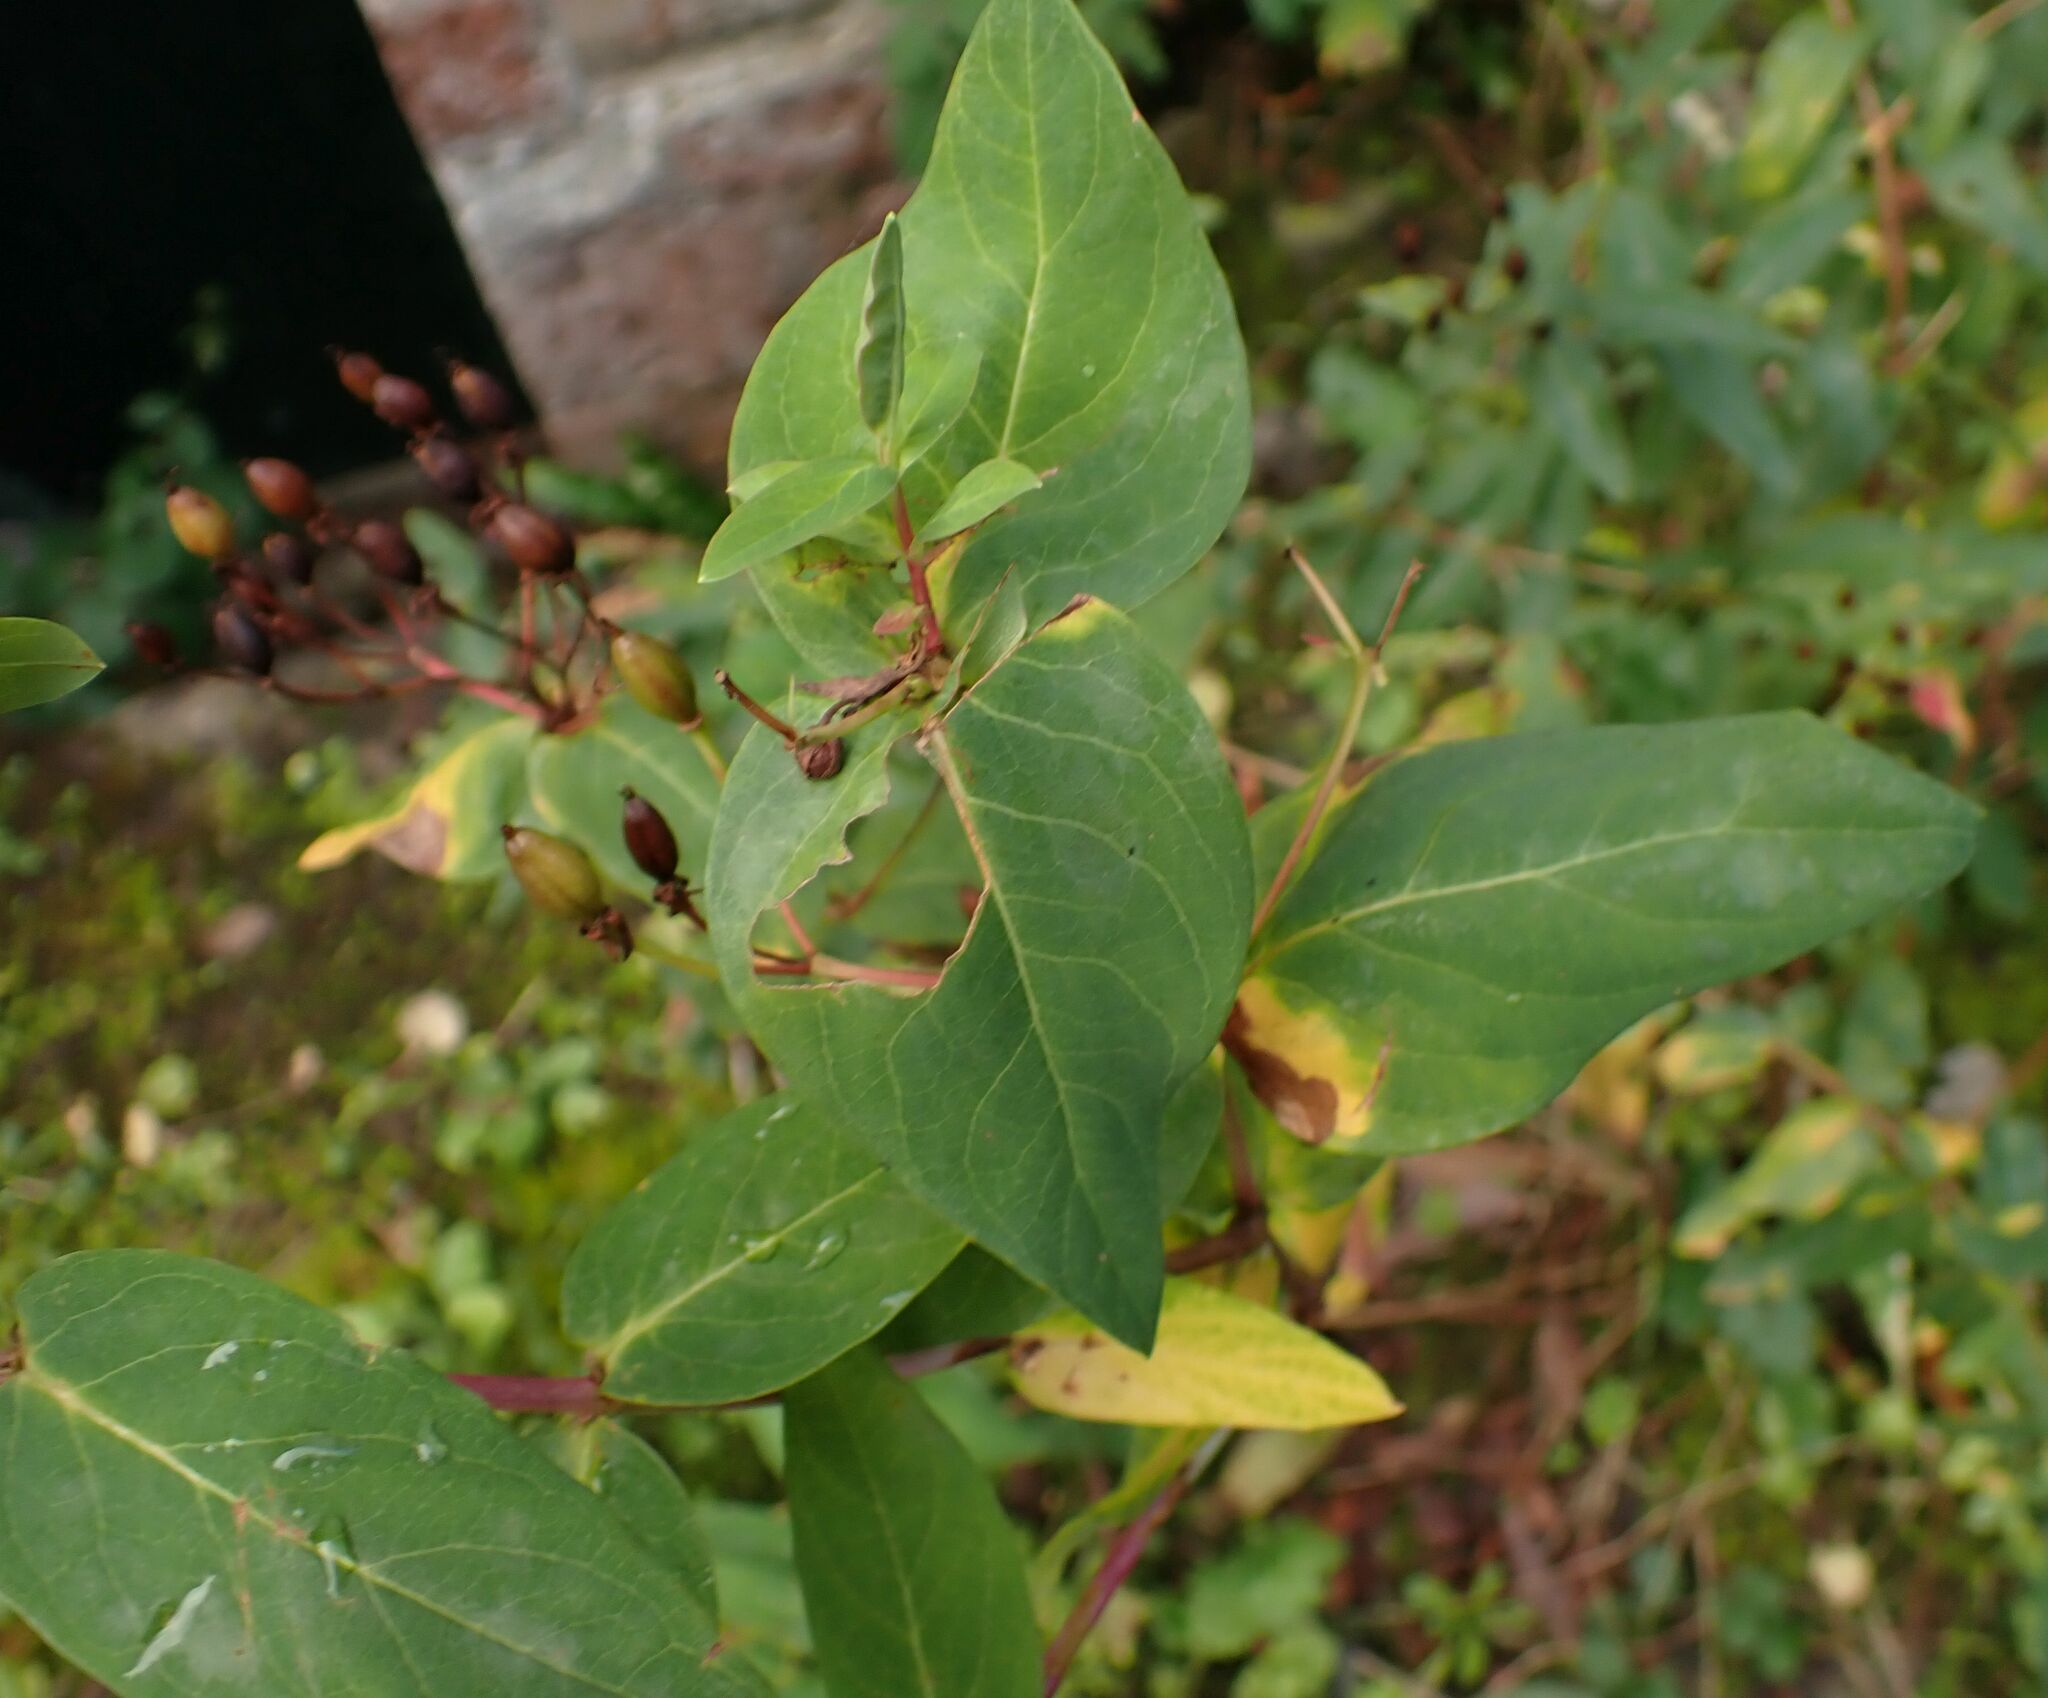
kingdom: Plantae
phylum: Tracheophyta
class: Magnoliopsida
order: Malpighiales
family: Hypericaceae
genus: Hypericum
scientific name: Hypericum hircinum
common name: Stinking tutsan
